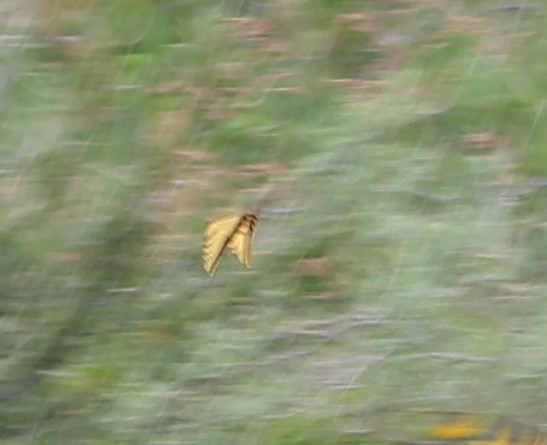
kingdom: Animalia
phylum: Arthropoda
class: Insecta
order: Lepidoptera
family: Papilionidae
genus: Papilio
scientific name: Papilio multicaudata
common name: Two-tailed tiger swallowtail
